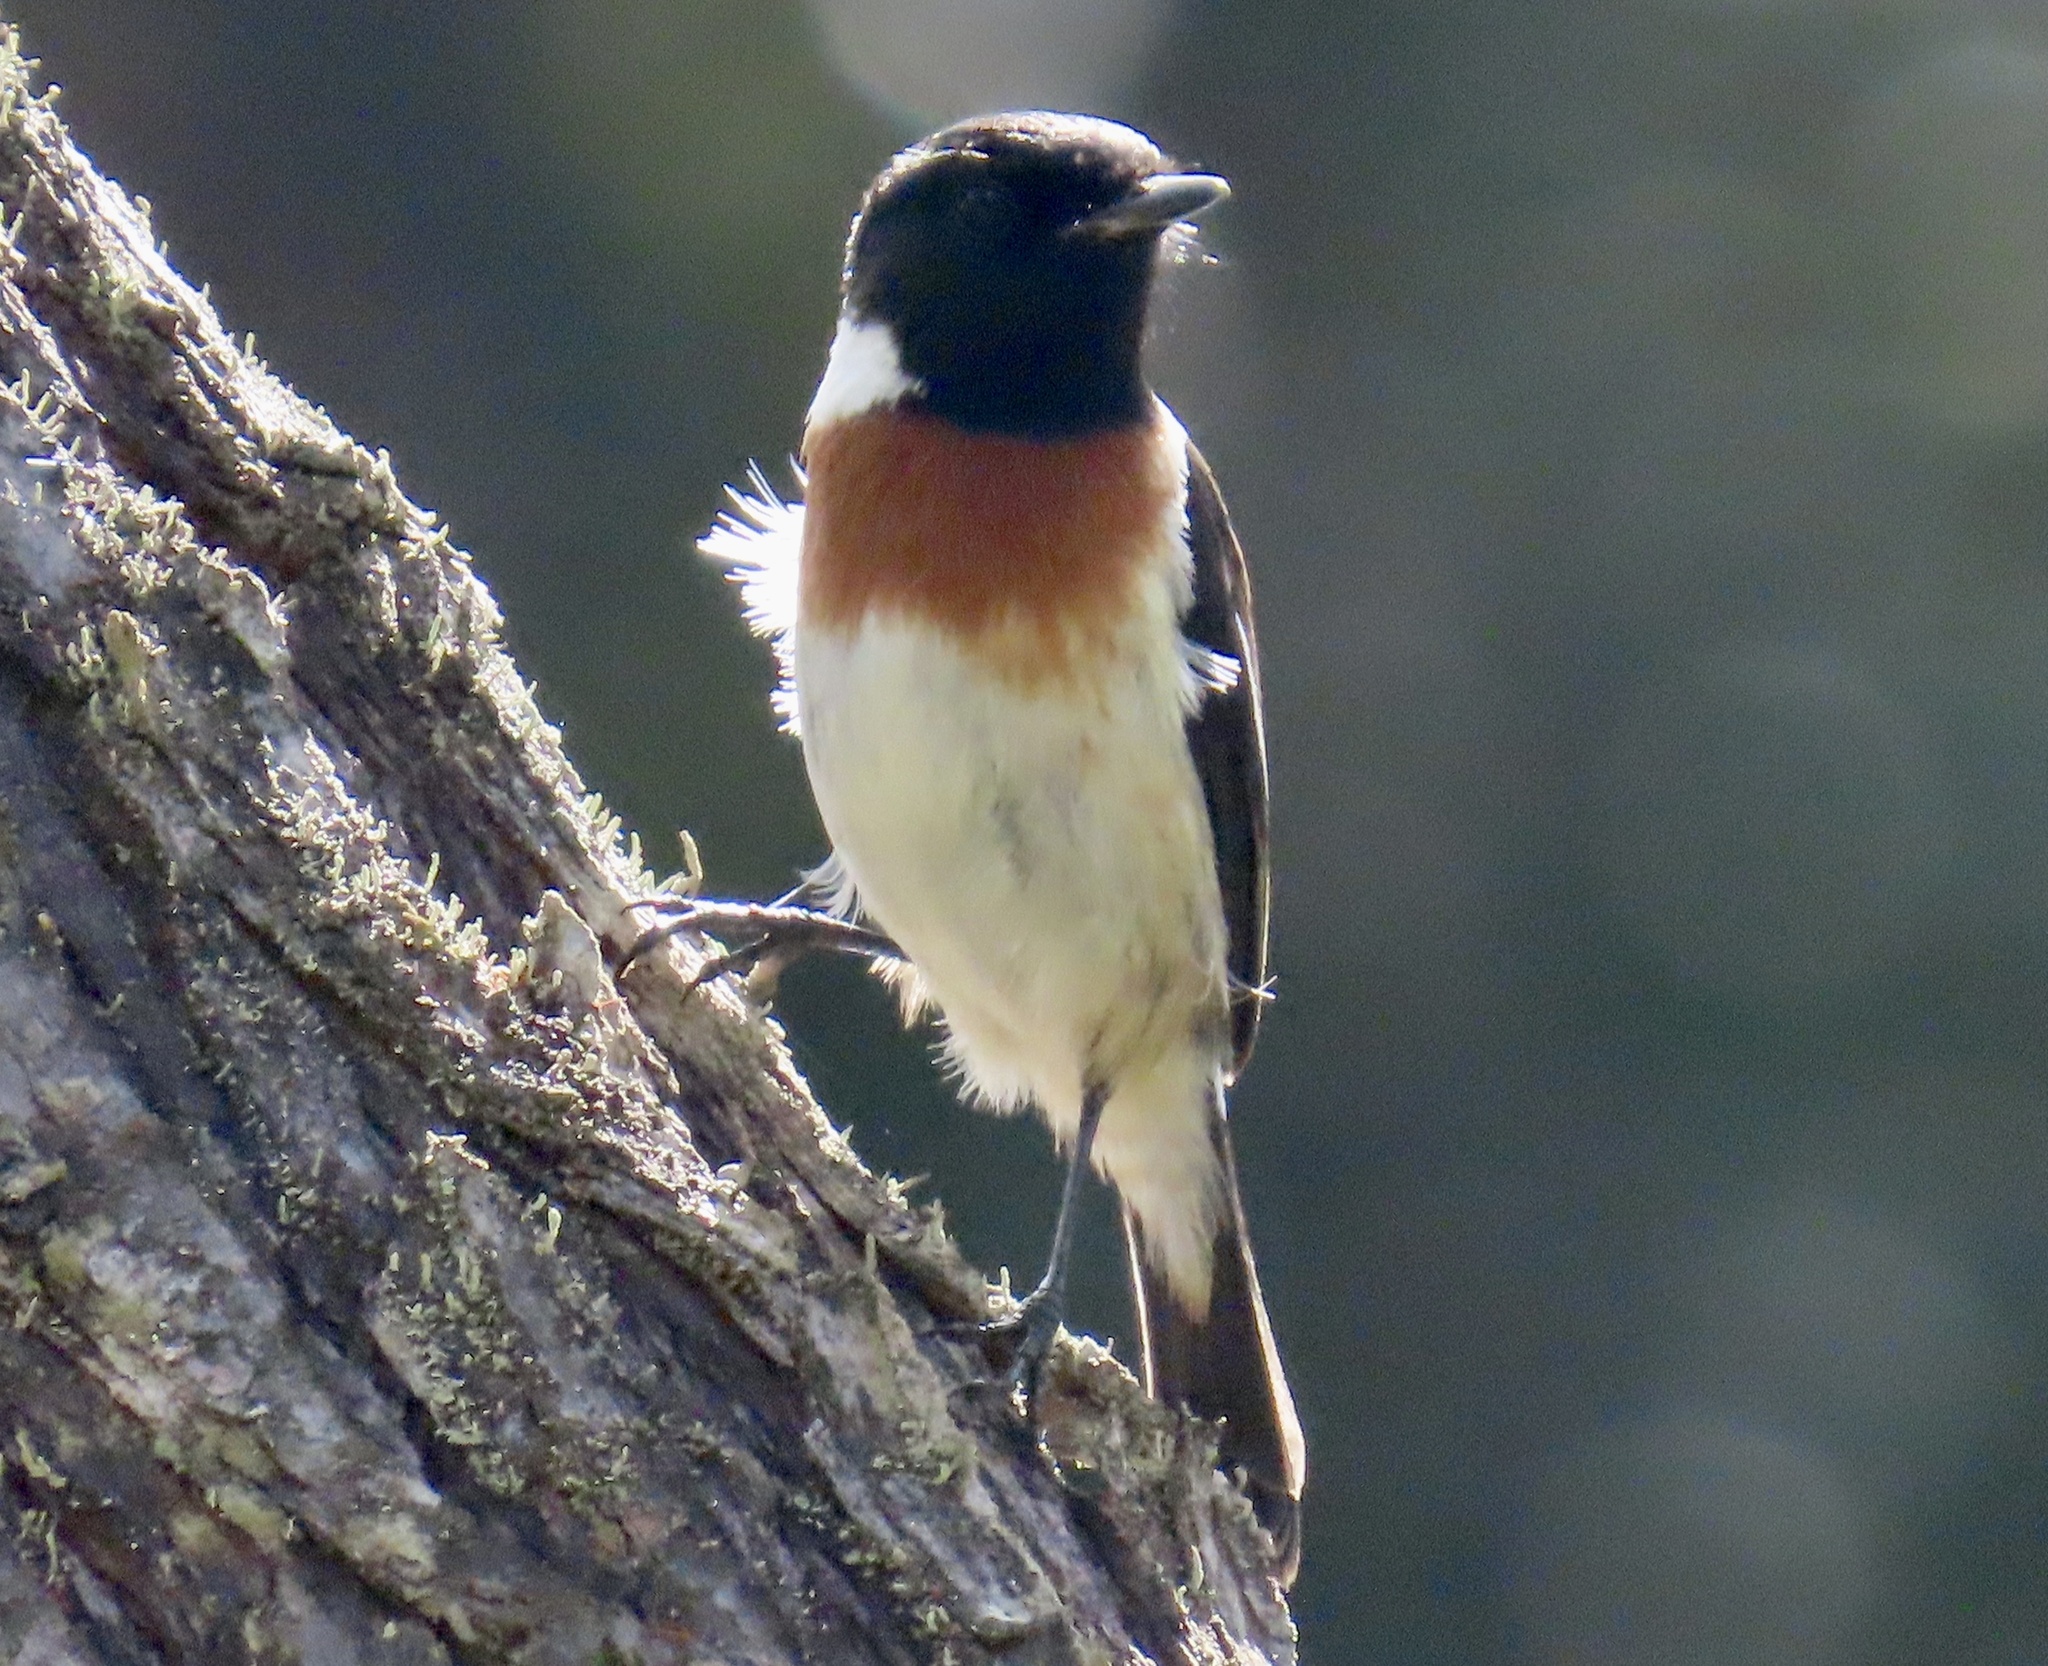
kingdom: Animalia
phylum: Chordata
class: Aves
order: Passeriformes
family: Muscicapidae
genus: Saxicola
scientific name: Saxicola torquatus
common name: African stonechat
